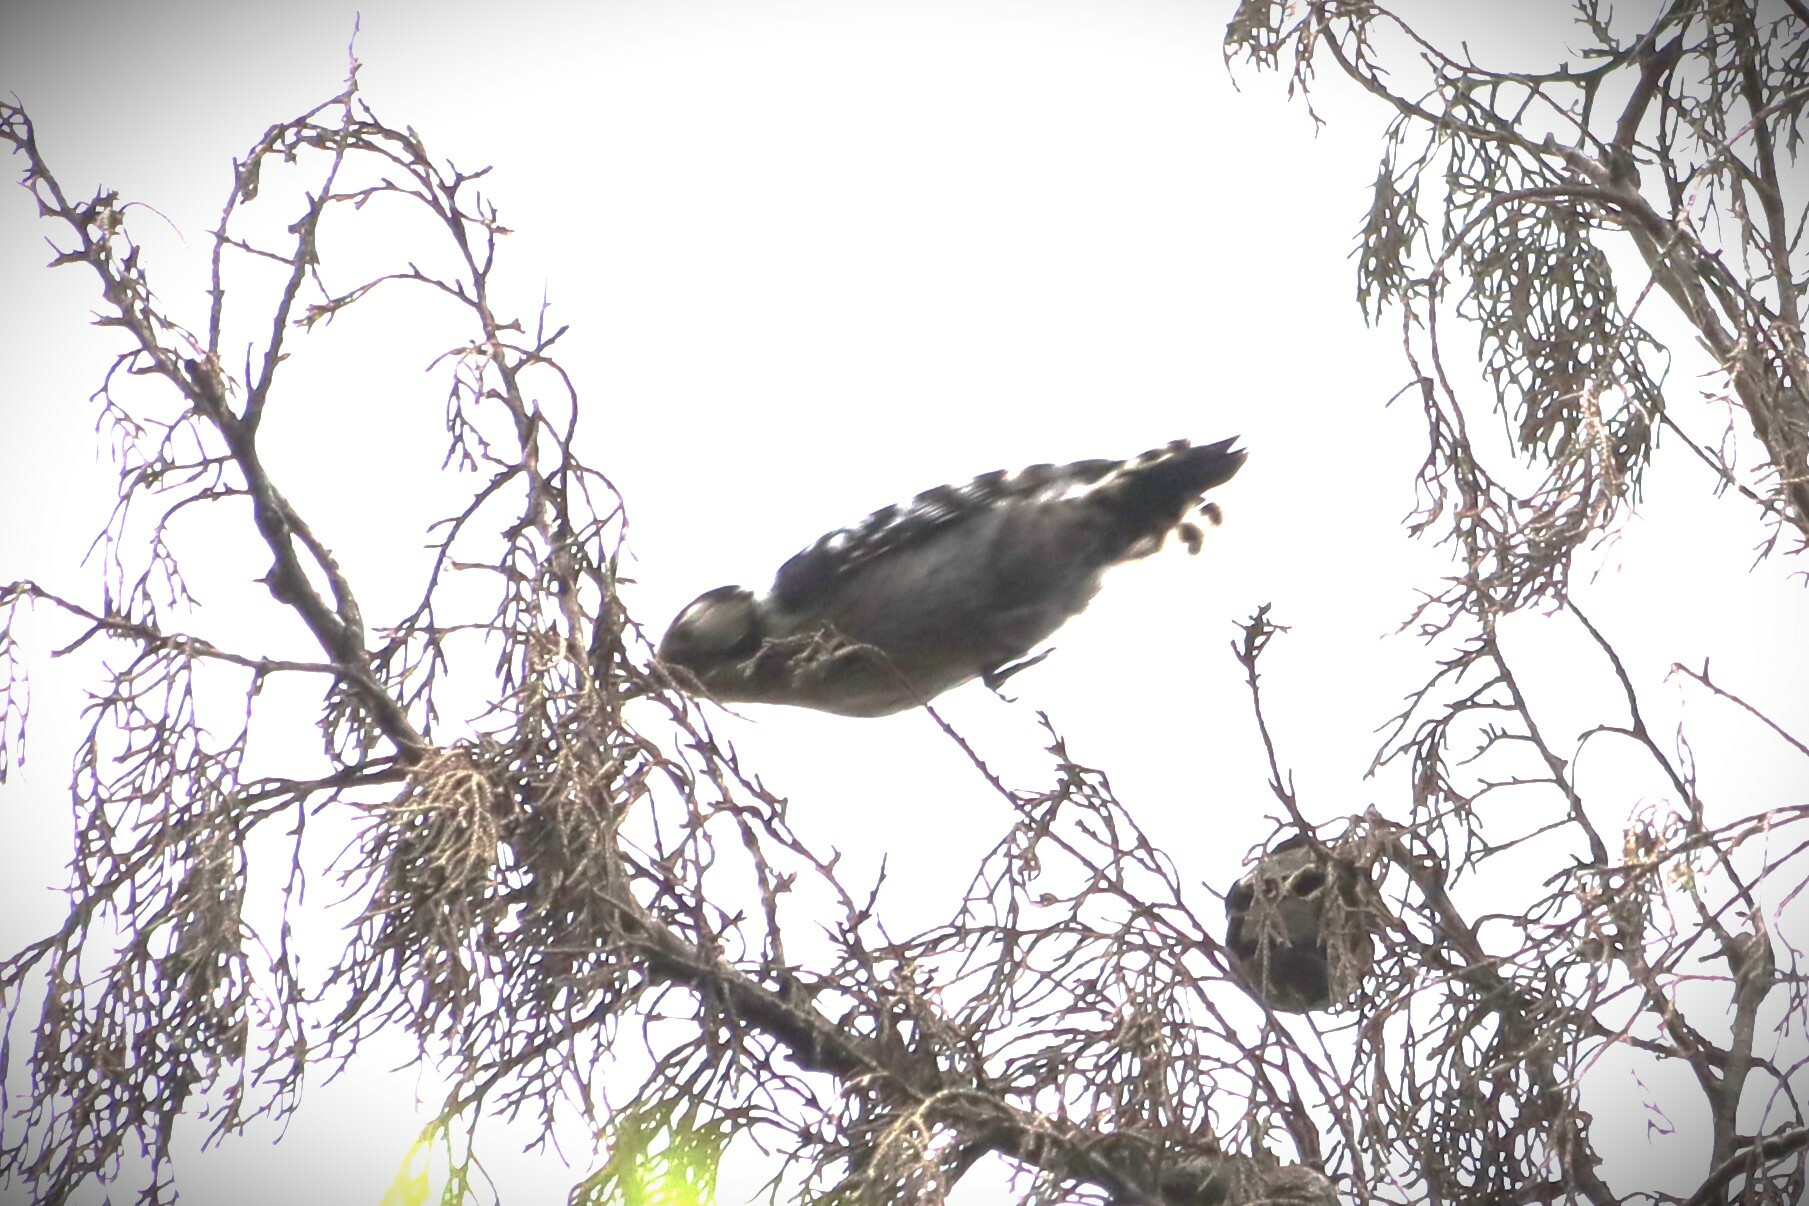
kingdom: Animalia
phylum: Chordata
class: Aves
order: Piciformes
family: Picidae
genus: Dryobates
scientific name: Dryobates minor
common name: Lesser spotted woodpecker
